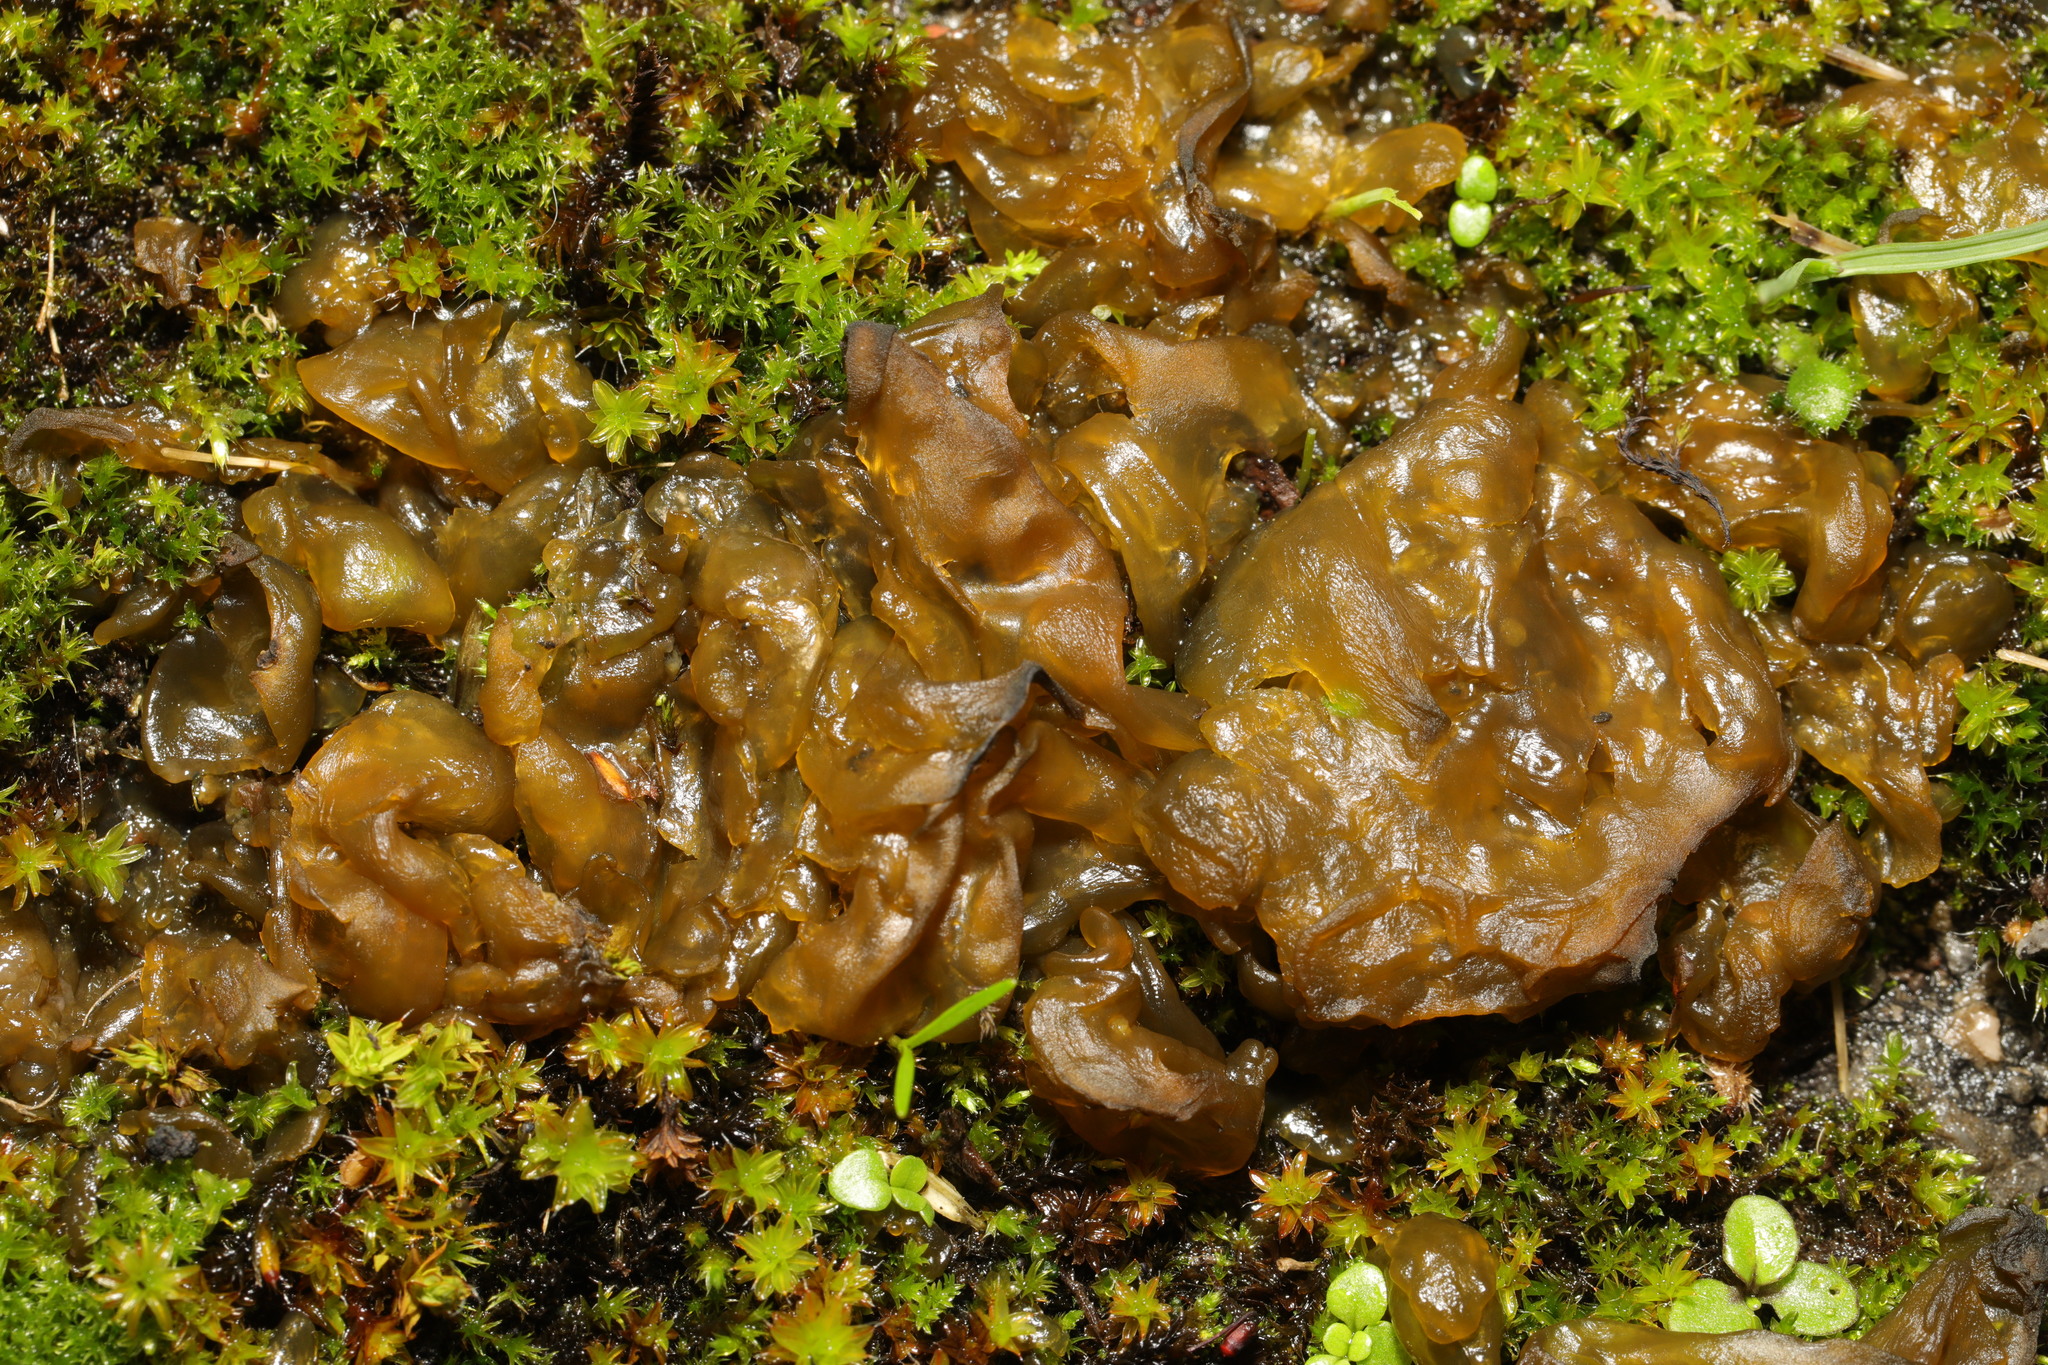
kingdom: Bacteria
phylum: Cyanobacteria
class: Cyanobacteriia
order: Cyanobacteriales
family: Nostocaceae
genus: Nostoc
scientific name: Nostoc commune
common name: Star jelly
